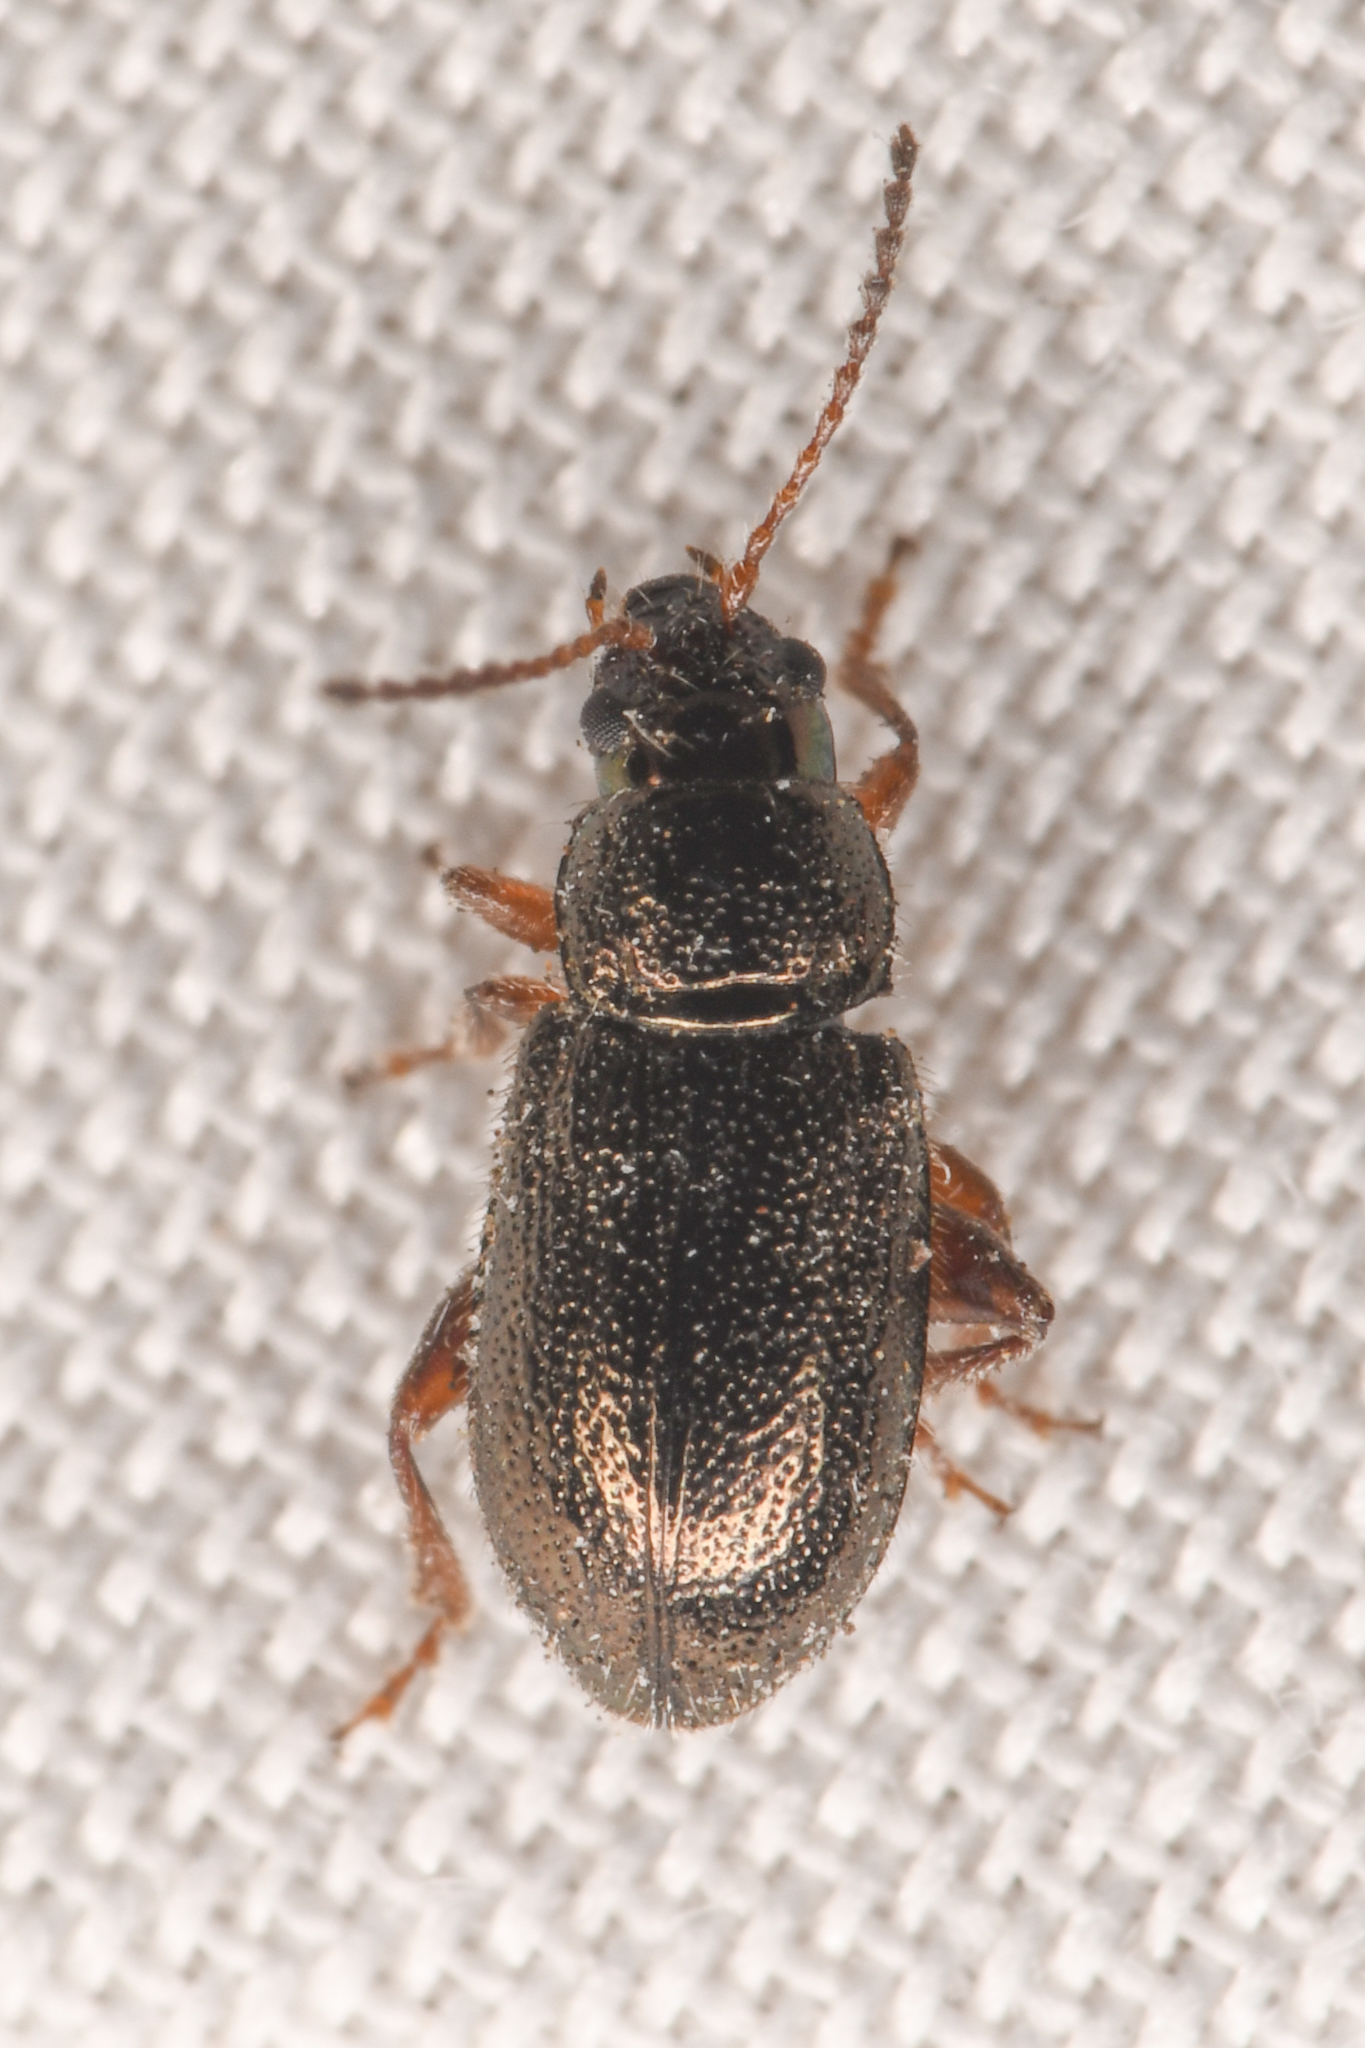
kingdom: Animalia
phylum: Arthropoda
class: Insecta
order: Coleoptera
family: Chrysomelidae
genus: Hemiglyptus
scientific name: Hemiglyptus basalis
